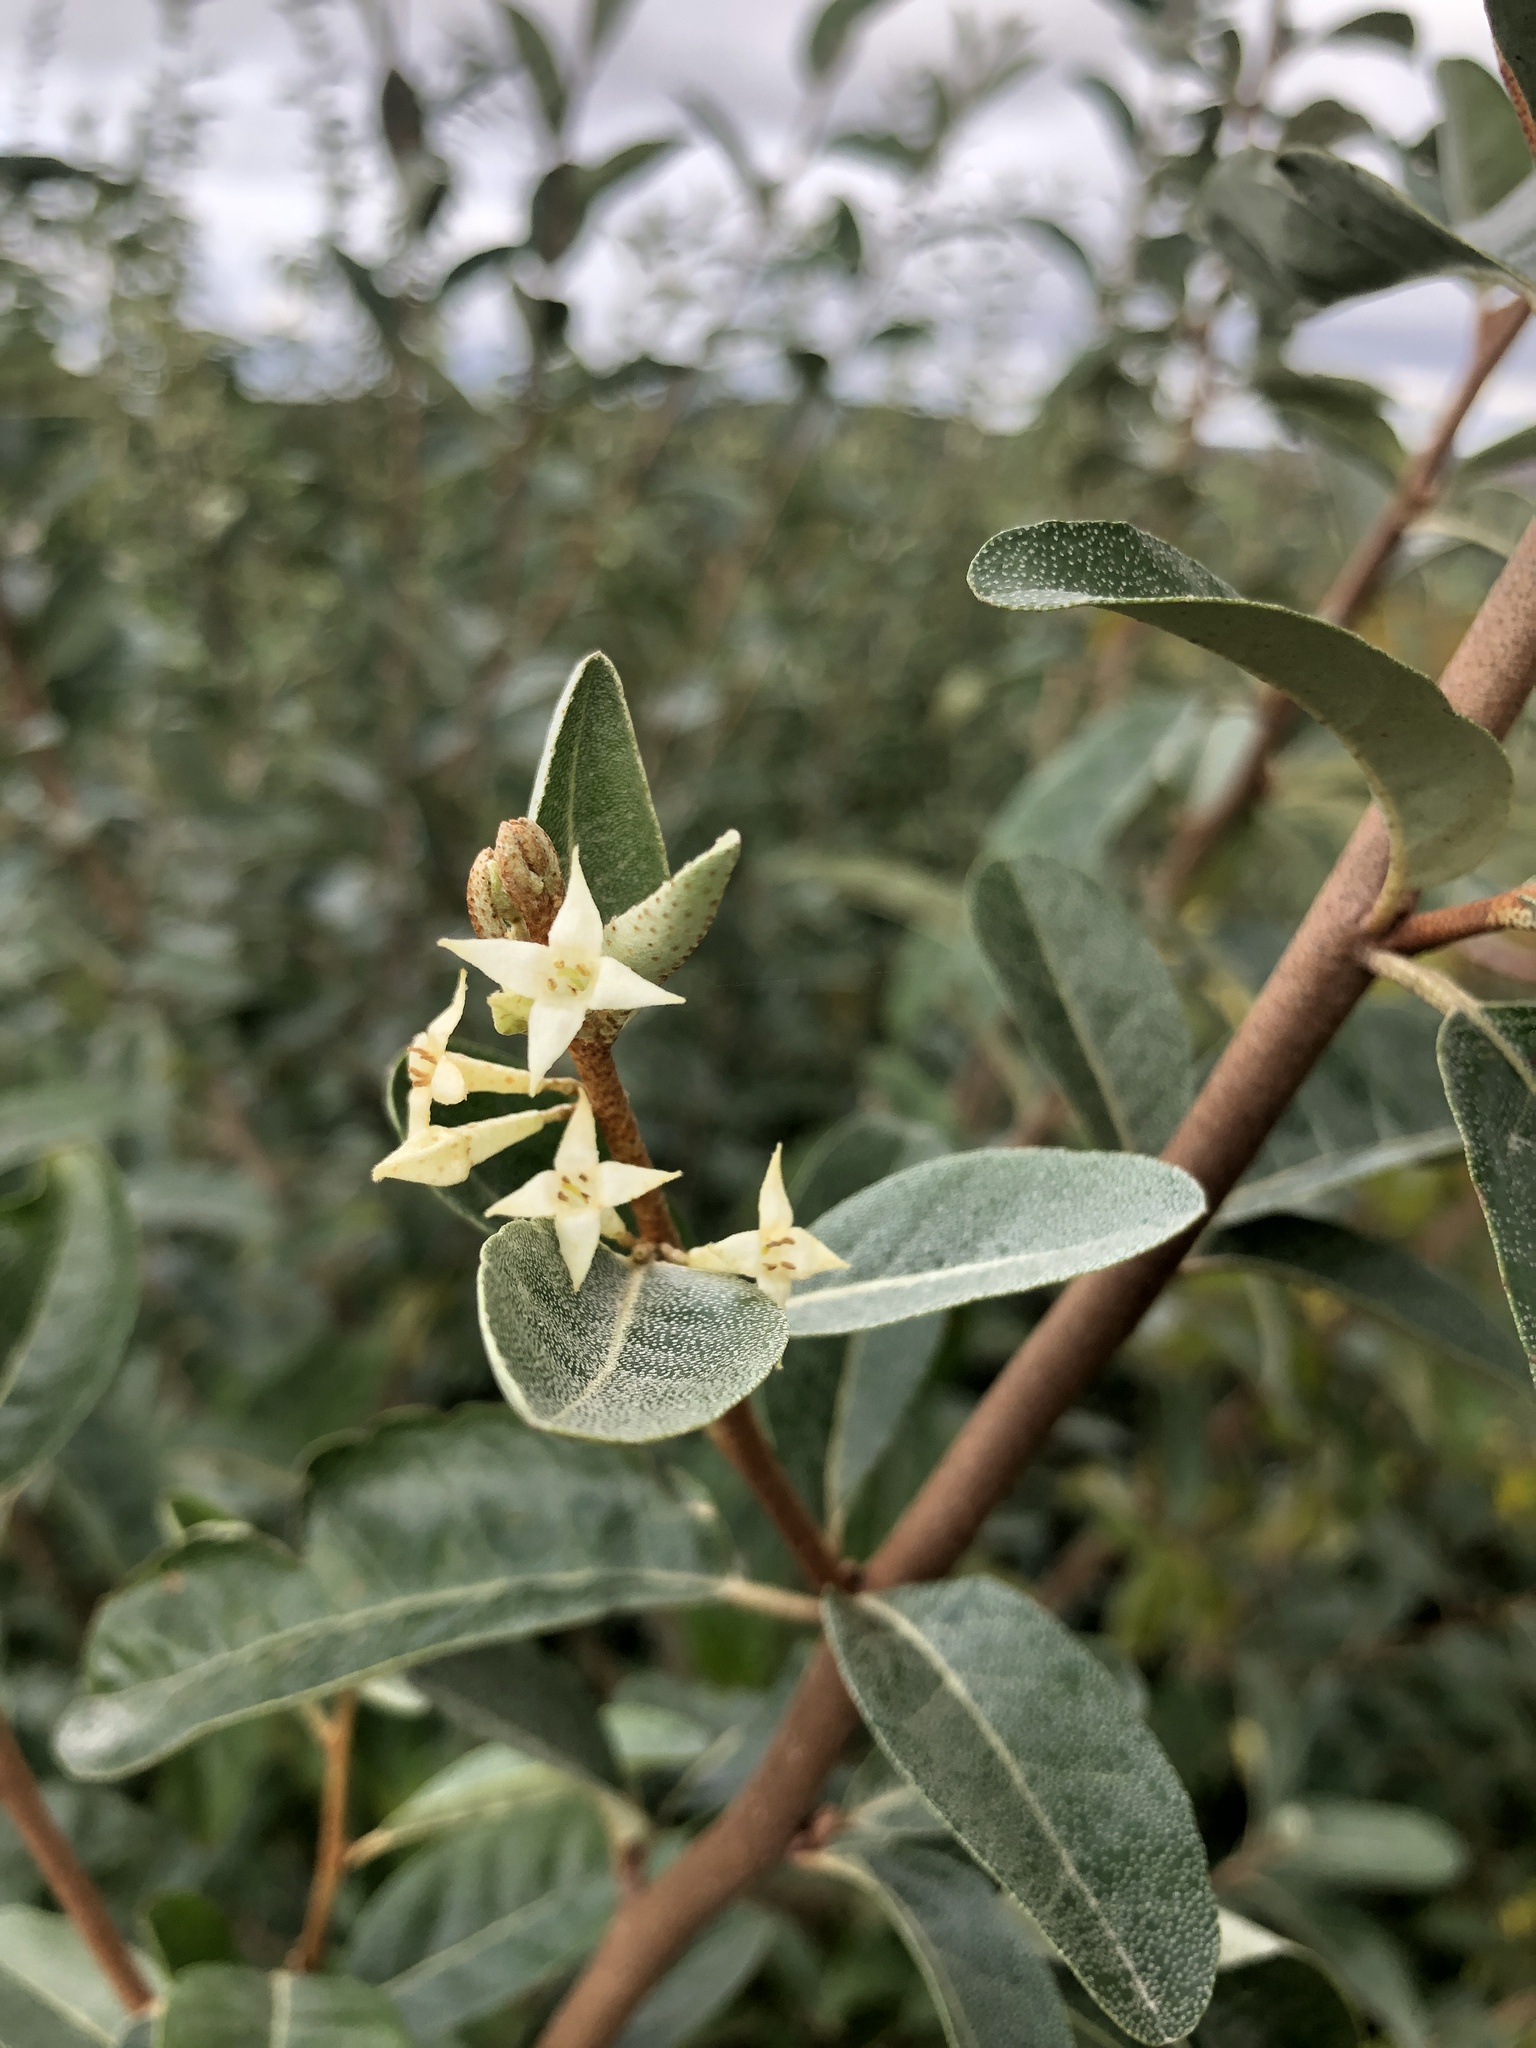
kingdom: Plantae
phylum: Tracheophyta
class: Magnoliopsida
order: Rosales
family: Elaeagnaceae
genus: Elaeagnus
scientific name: Elaeagnus umbellata
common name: Autumn olive
